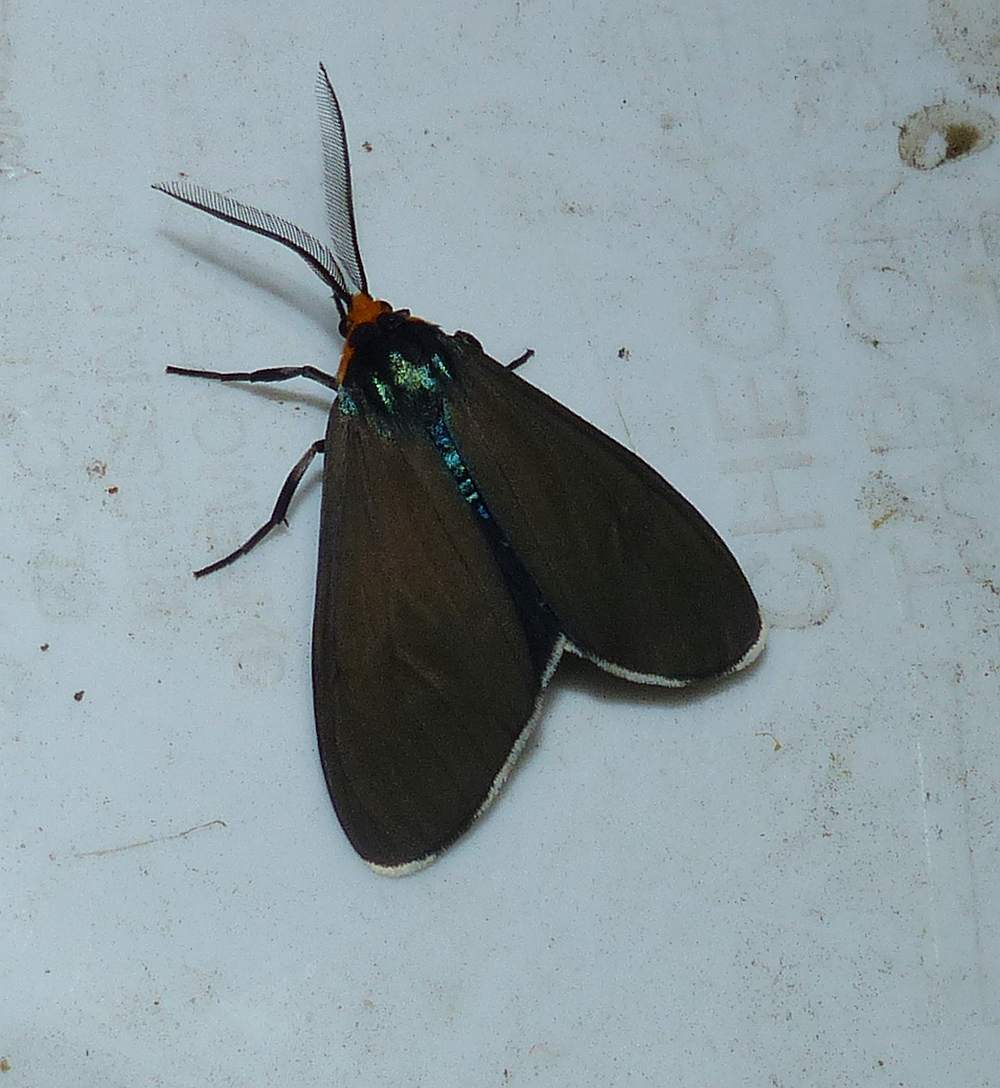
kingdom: Animalia
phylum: Arthropoda
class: Insecta
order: Lepidoptera
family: Erebidae
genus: Ctenucha
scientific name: Ctenucha virginica
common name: Virginia ctenucha moth
